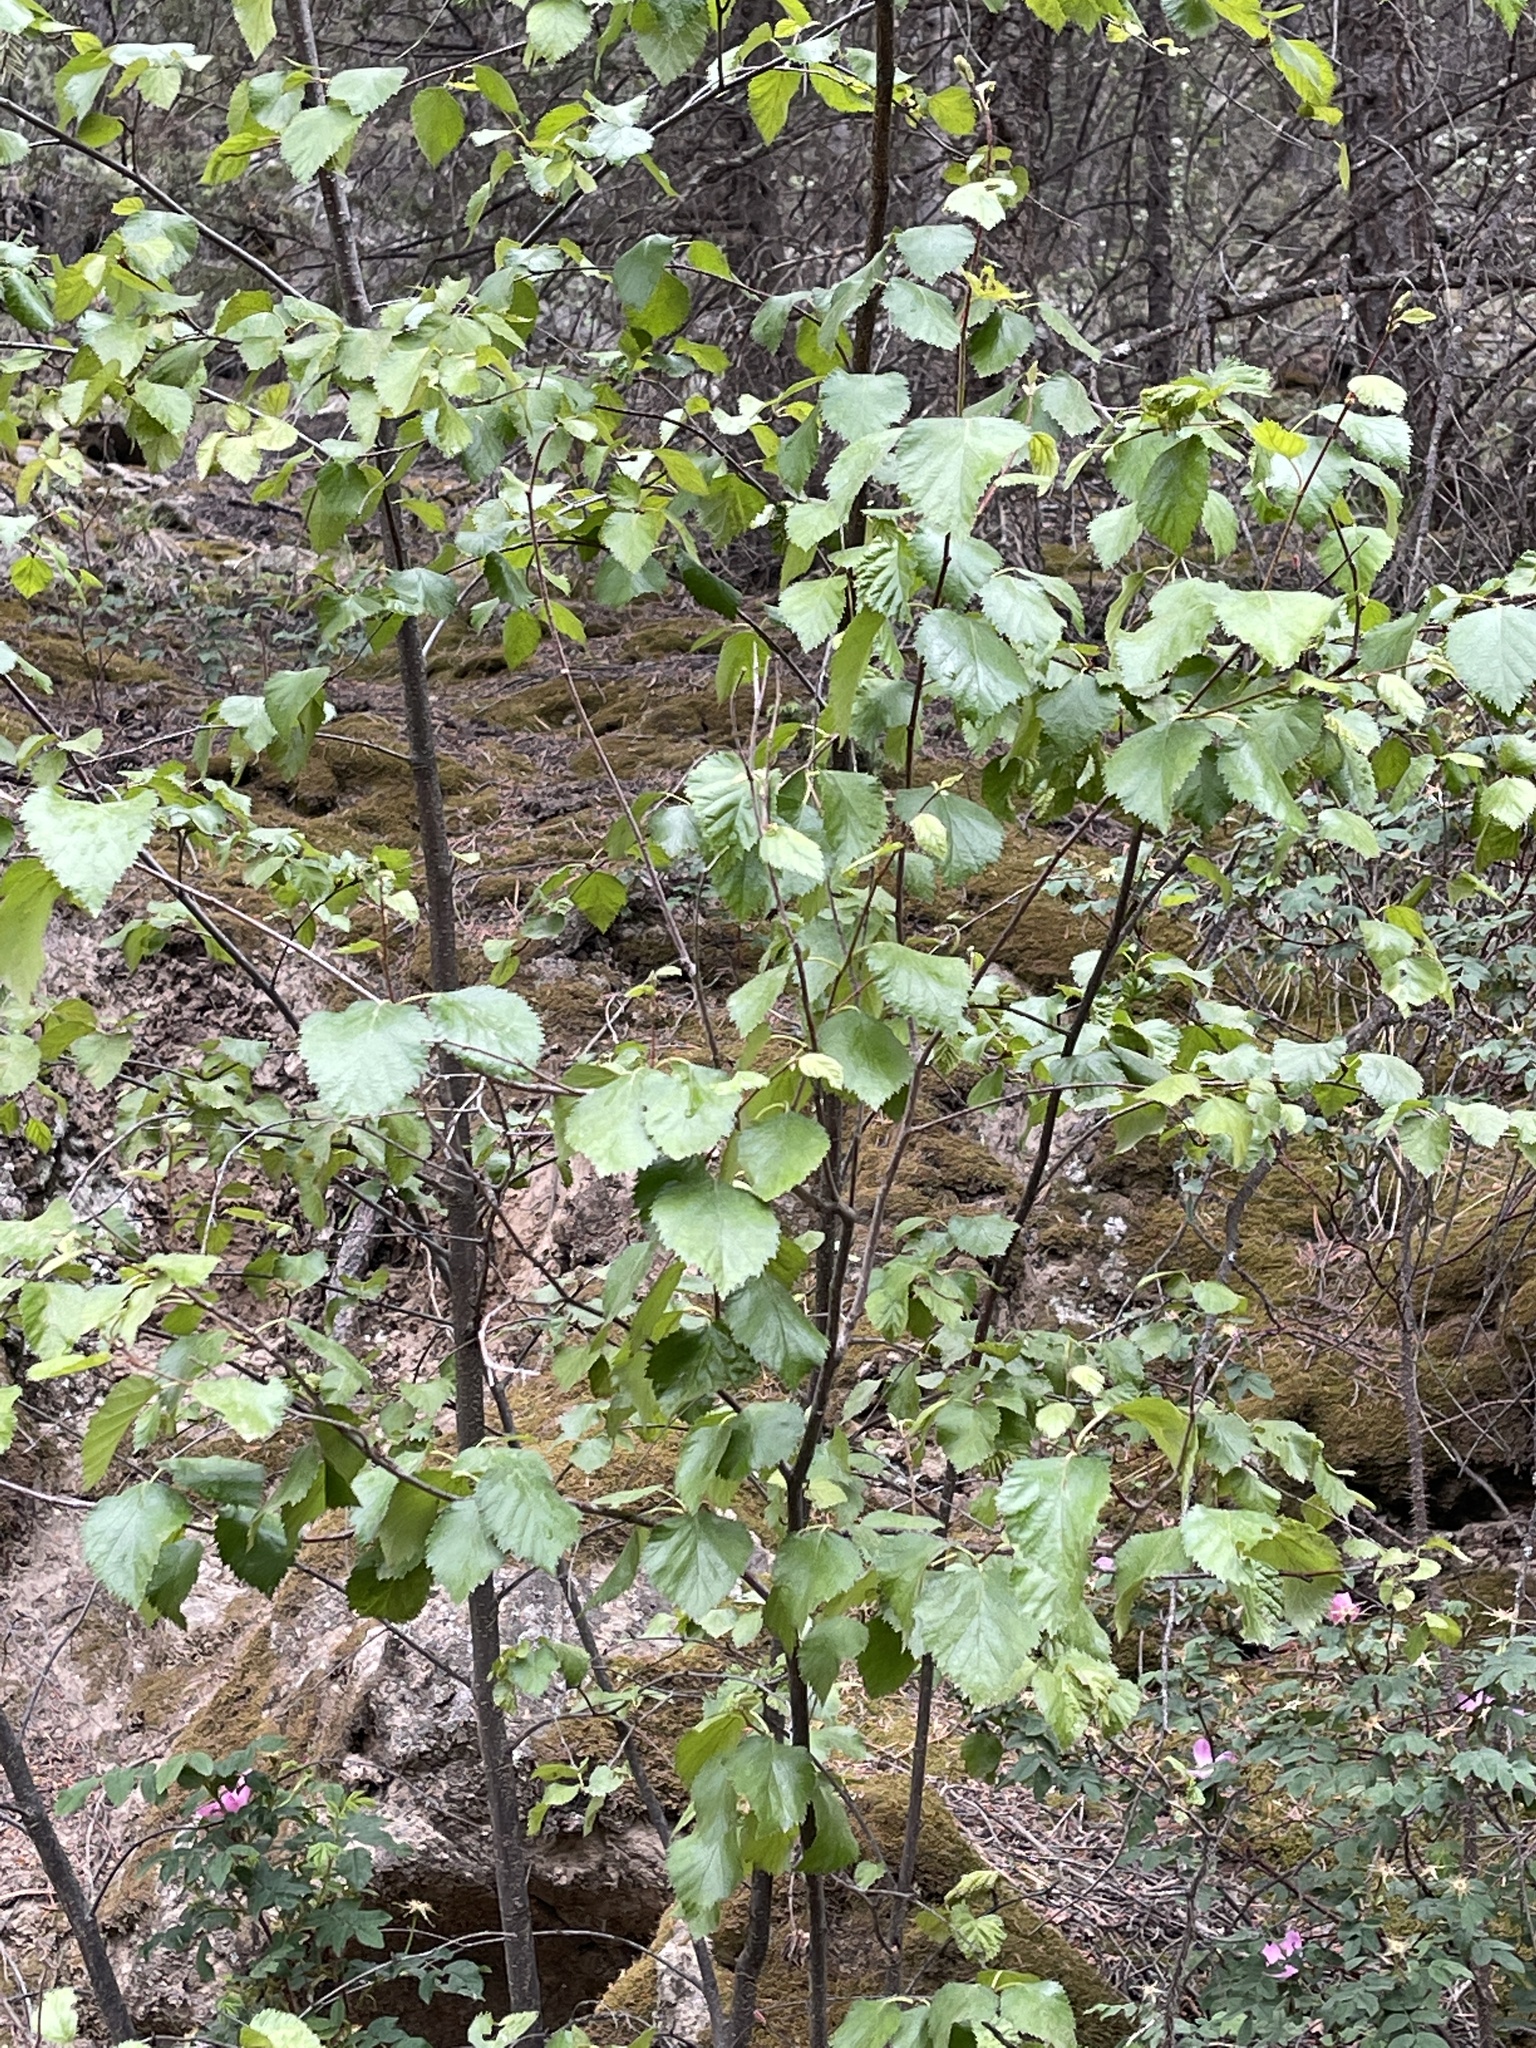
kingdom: Plantae
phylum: Tracheophyta
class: Magnoliopsida
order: Fagales
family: Betulaceae
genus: Betula
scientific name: Betula occidentalis
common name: River birch
